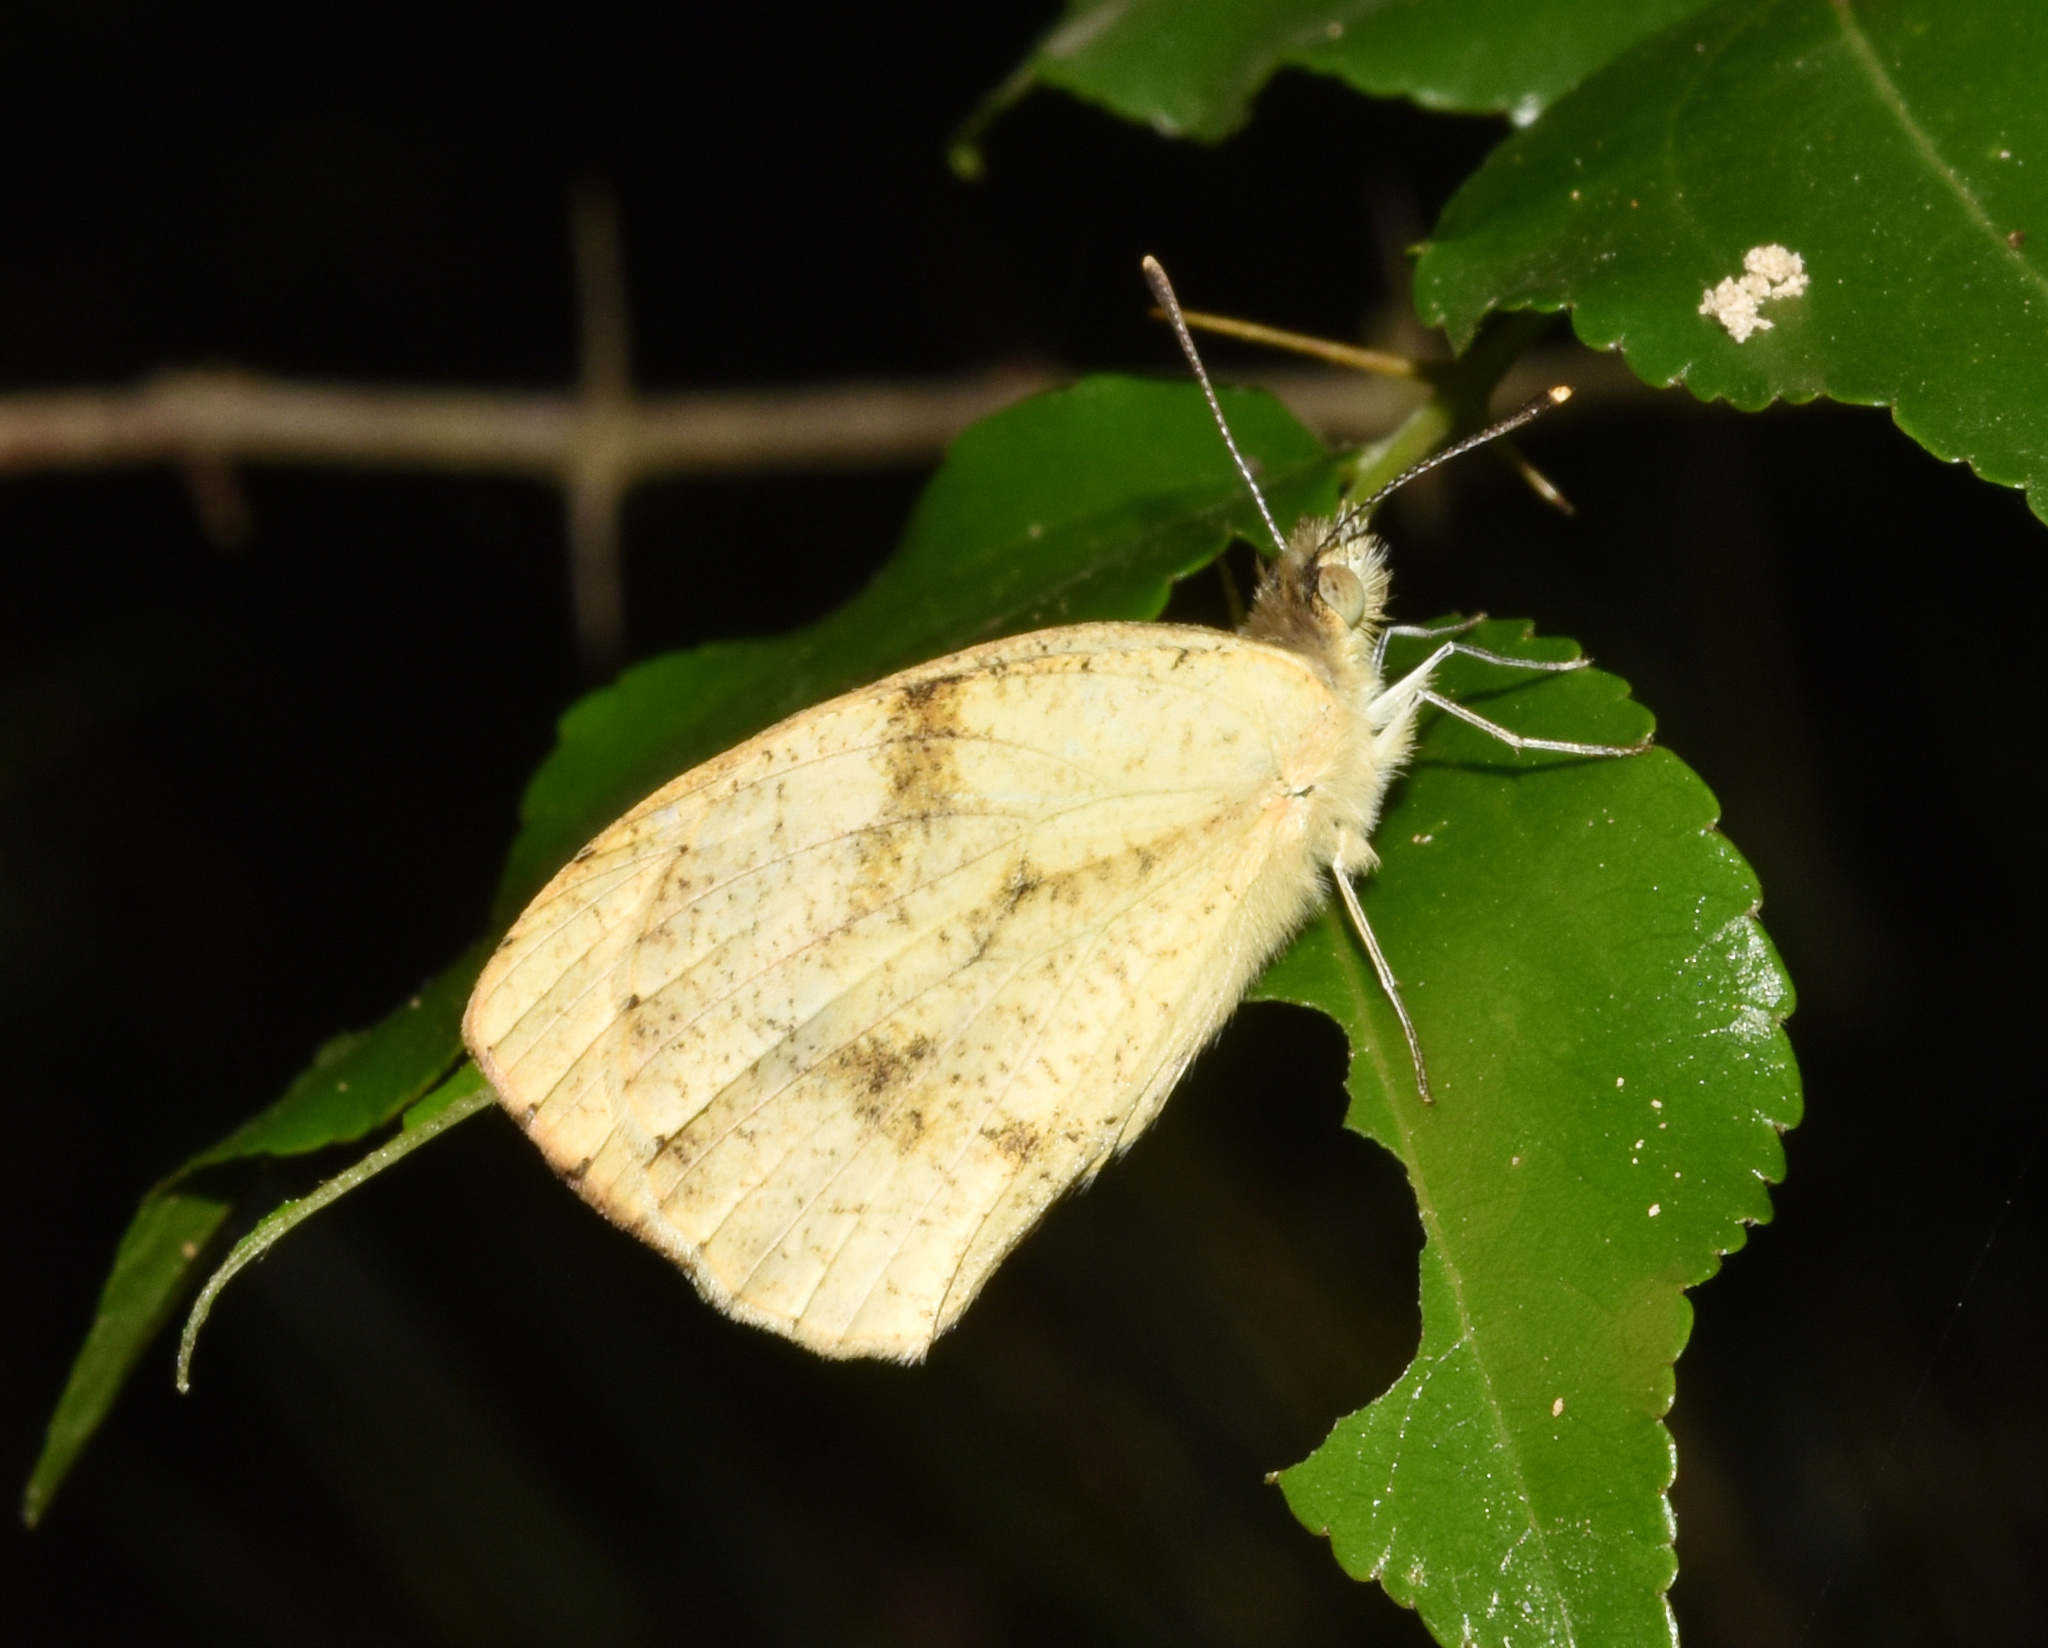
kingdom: Animalia
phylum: Arthropoda
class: Insecta
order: Lepidoptera
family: Pieridae
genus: Colotis
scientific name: Colotis auxo
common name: Sulphur orange tip
